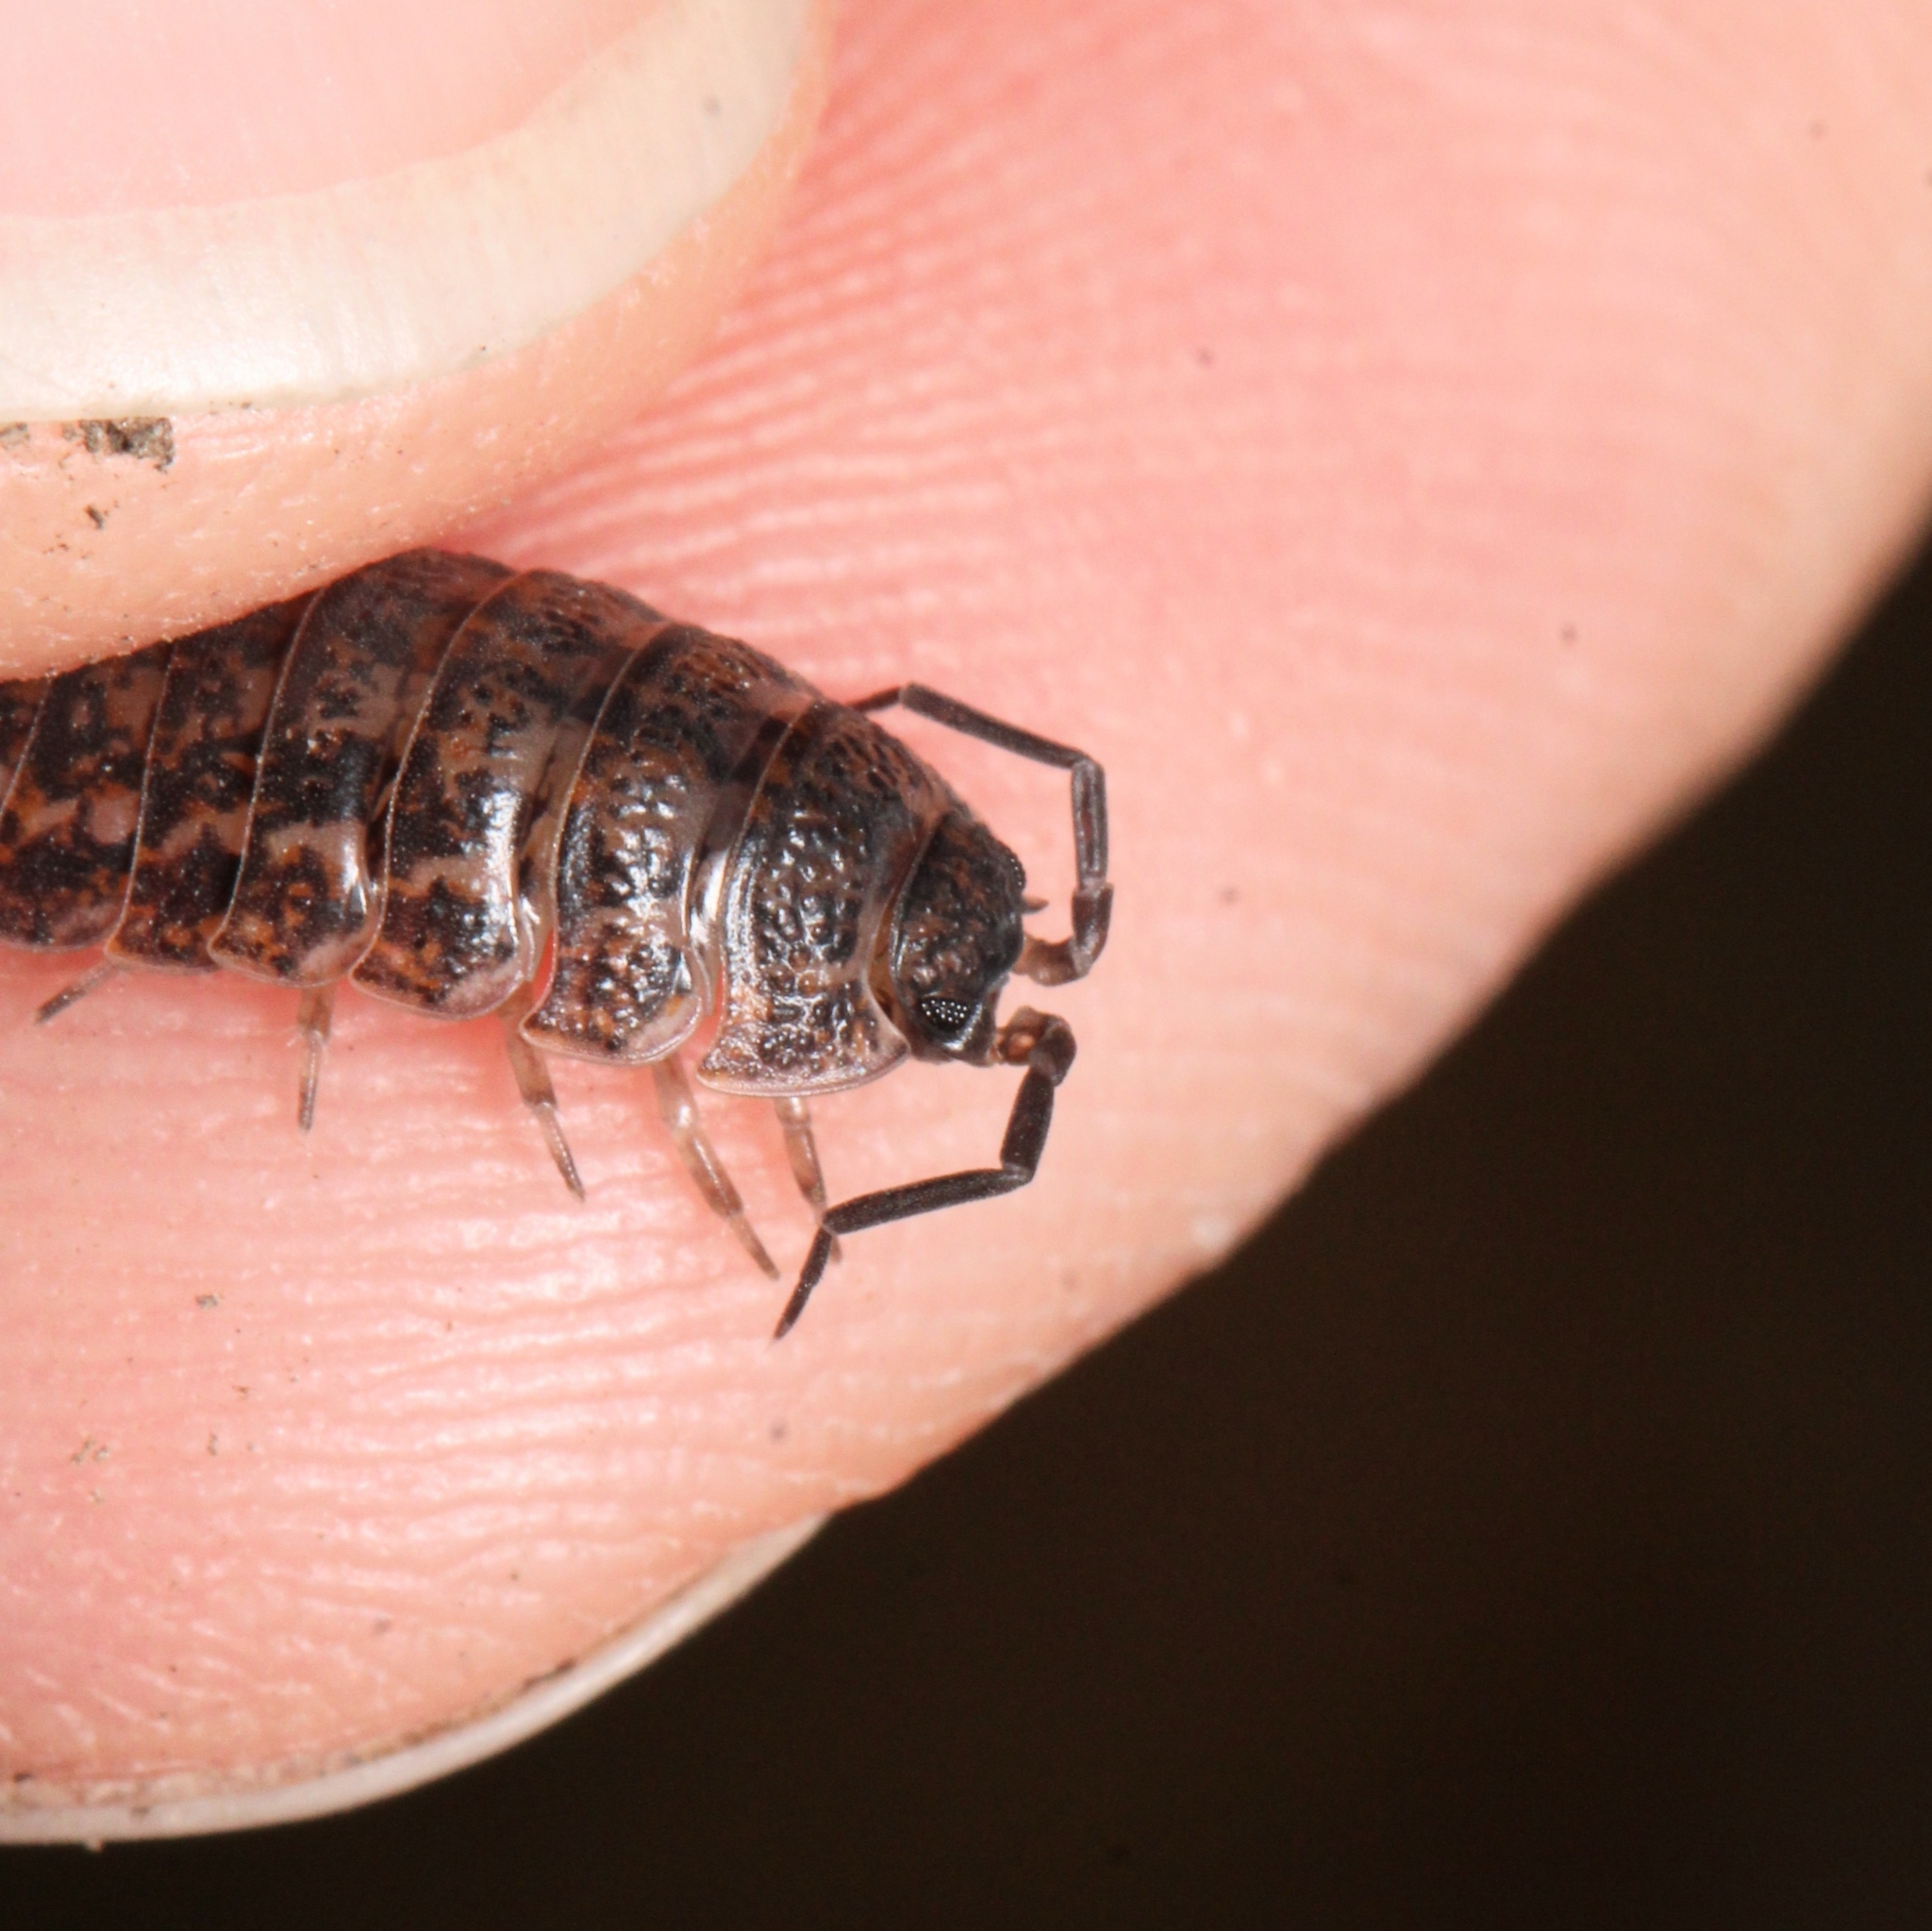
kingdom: Animalia
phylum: Arthropoda
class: Malacostraca
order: Isopoda
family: Trachelipodidae
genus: Trachelipus
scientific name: Trachelipus rathkii
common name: Isopod
